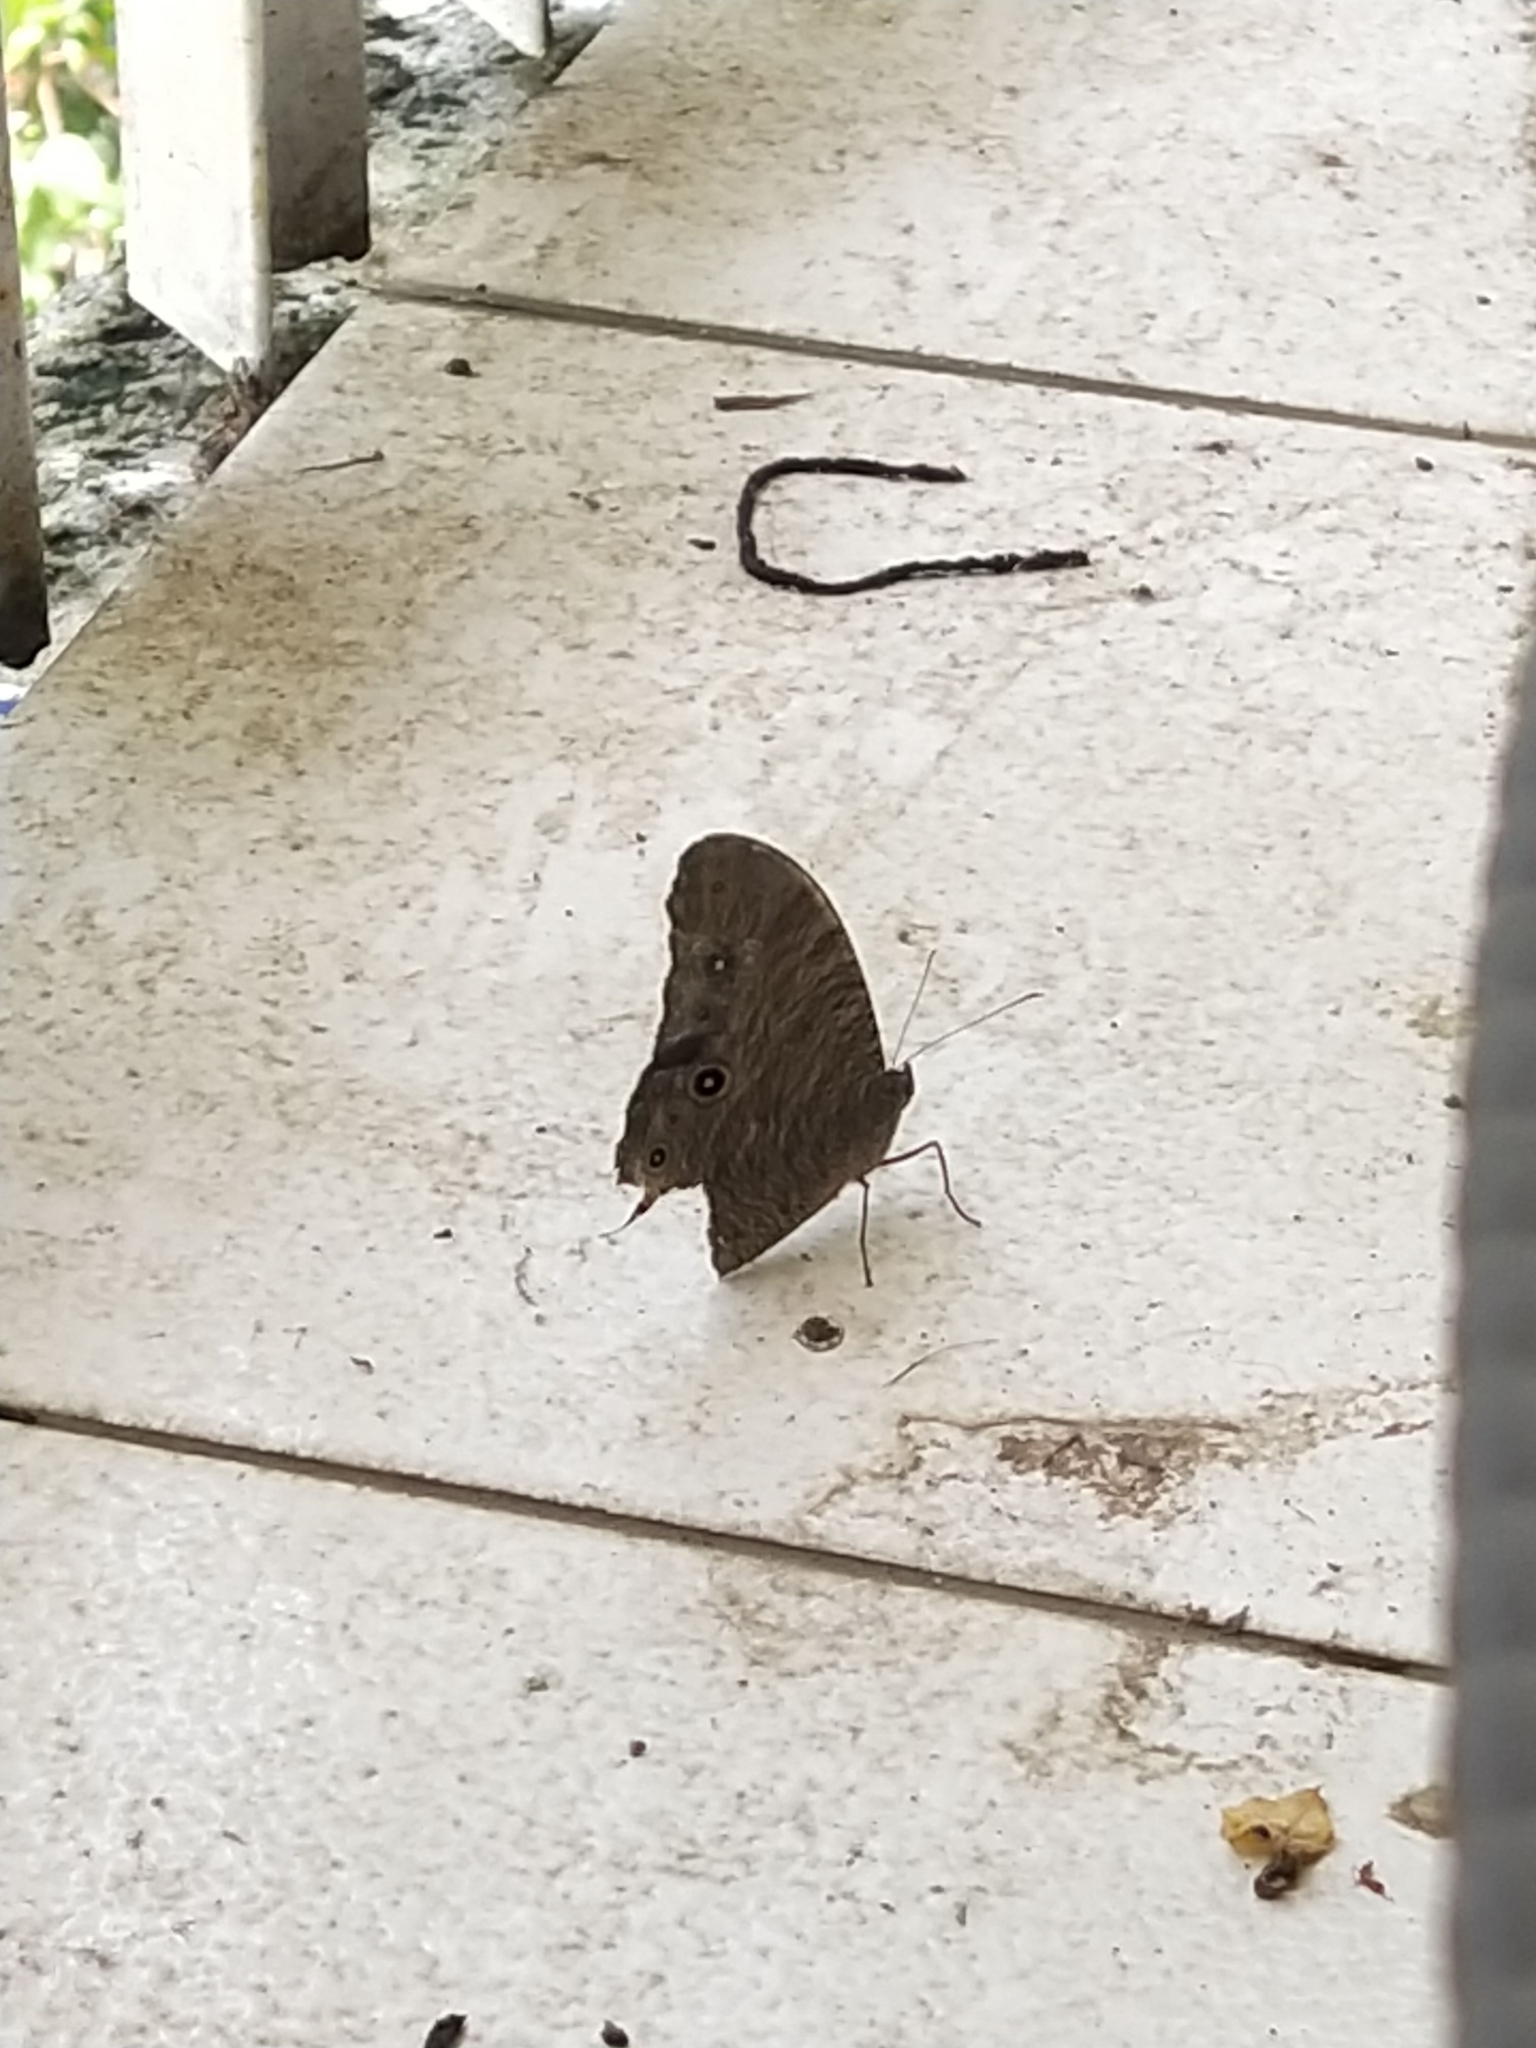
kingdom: Animalia
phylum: Arthropoda
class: Insecta
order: Lepidoptera
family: Nymphalidae
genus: Melanitis
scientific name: Melanitis leda
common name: Twilight brown
